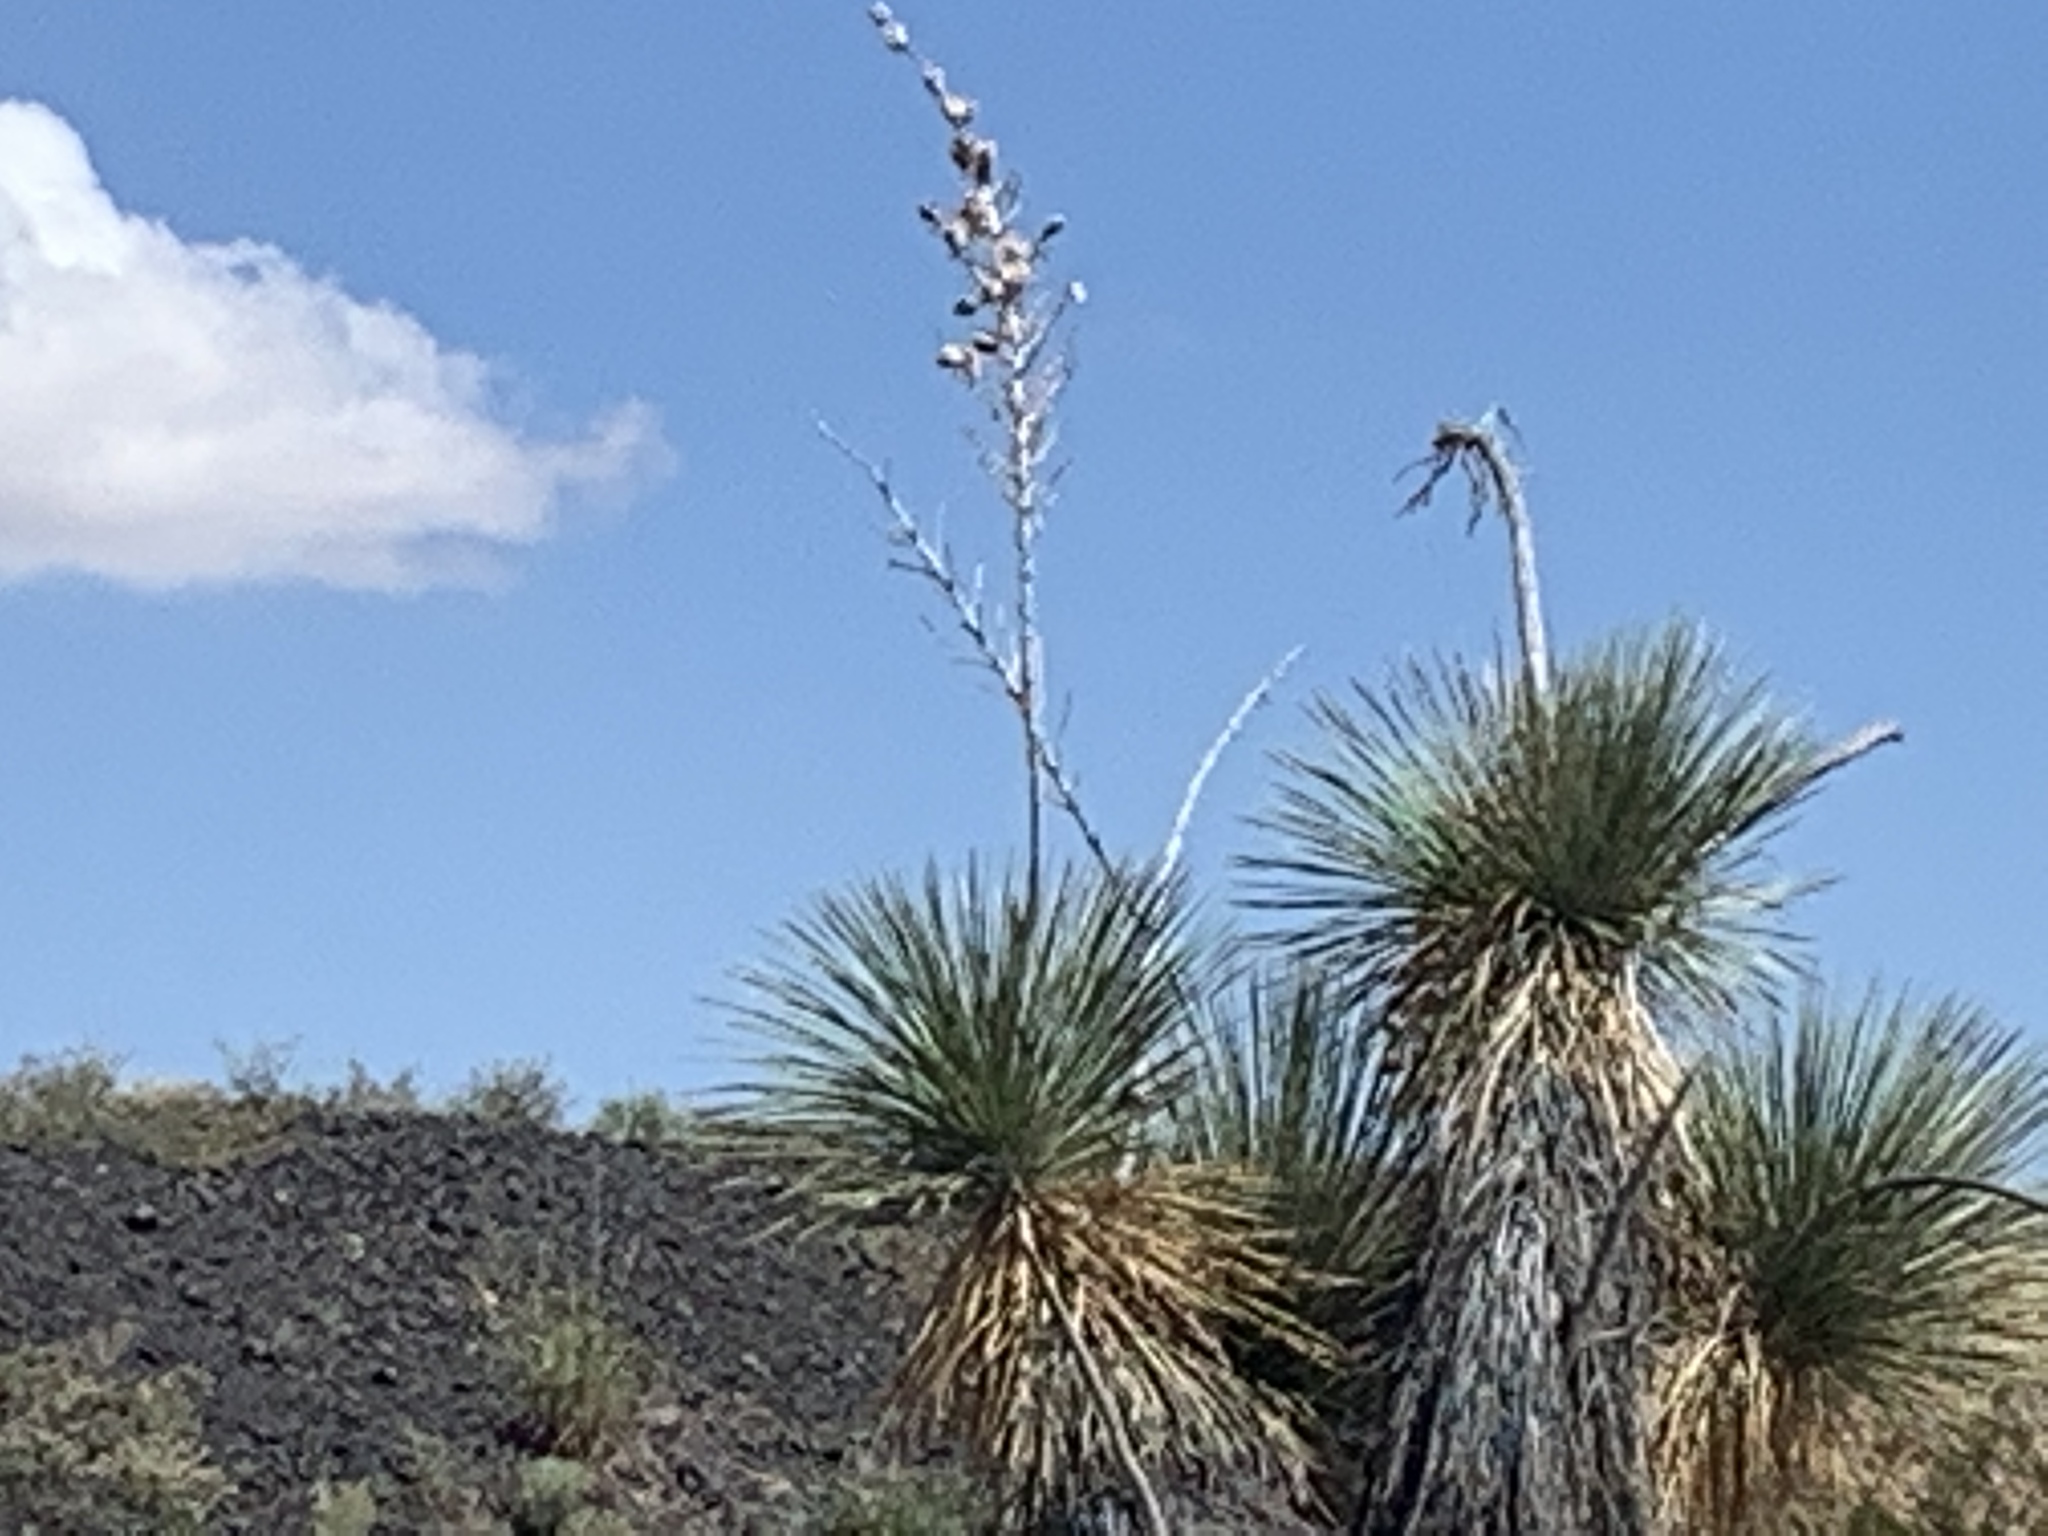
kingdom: Plantae
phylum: Tracheophyta
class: Liliopsida
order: Asparagales
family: Asparagaceae
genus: Yucca
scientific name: Yucca elata
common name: Palmella
